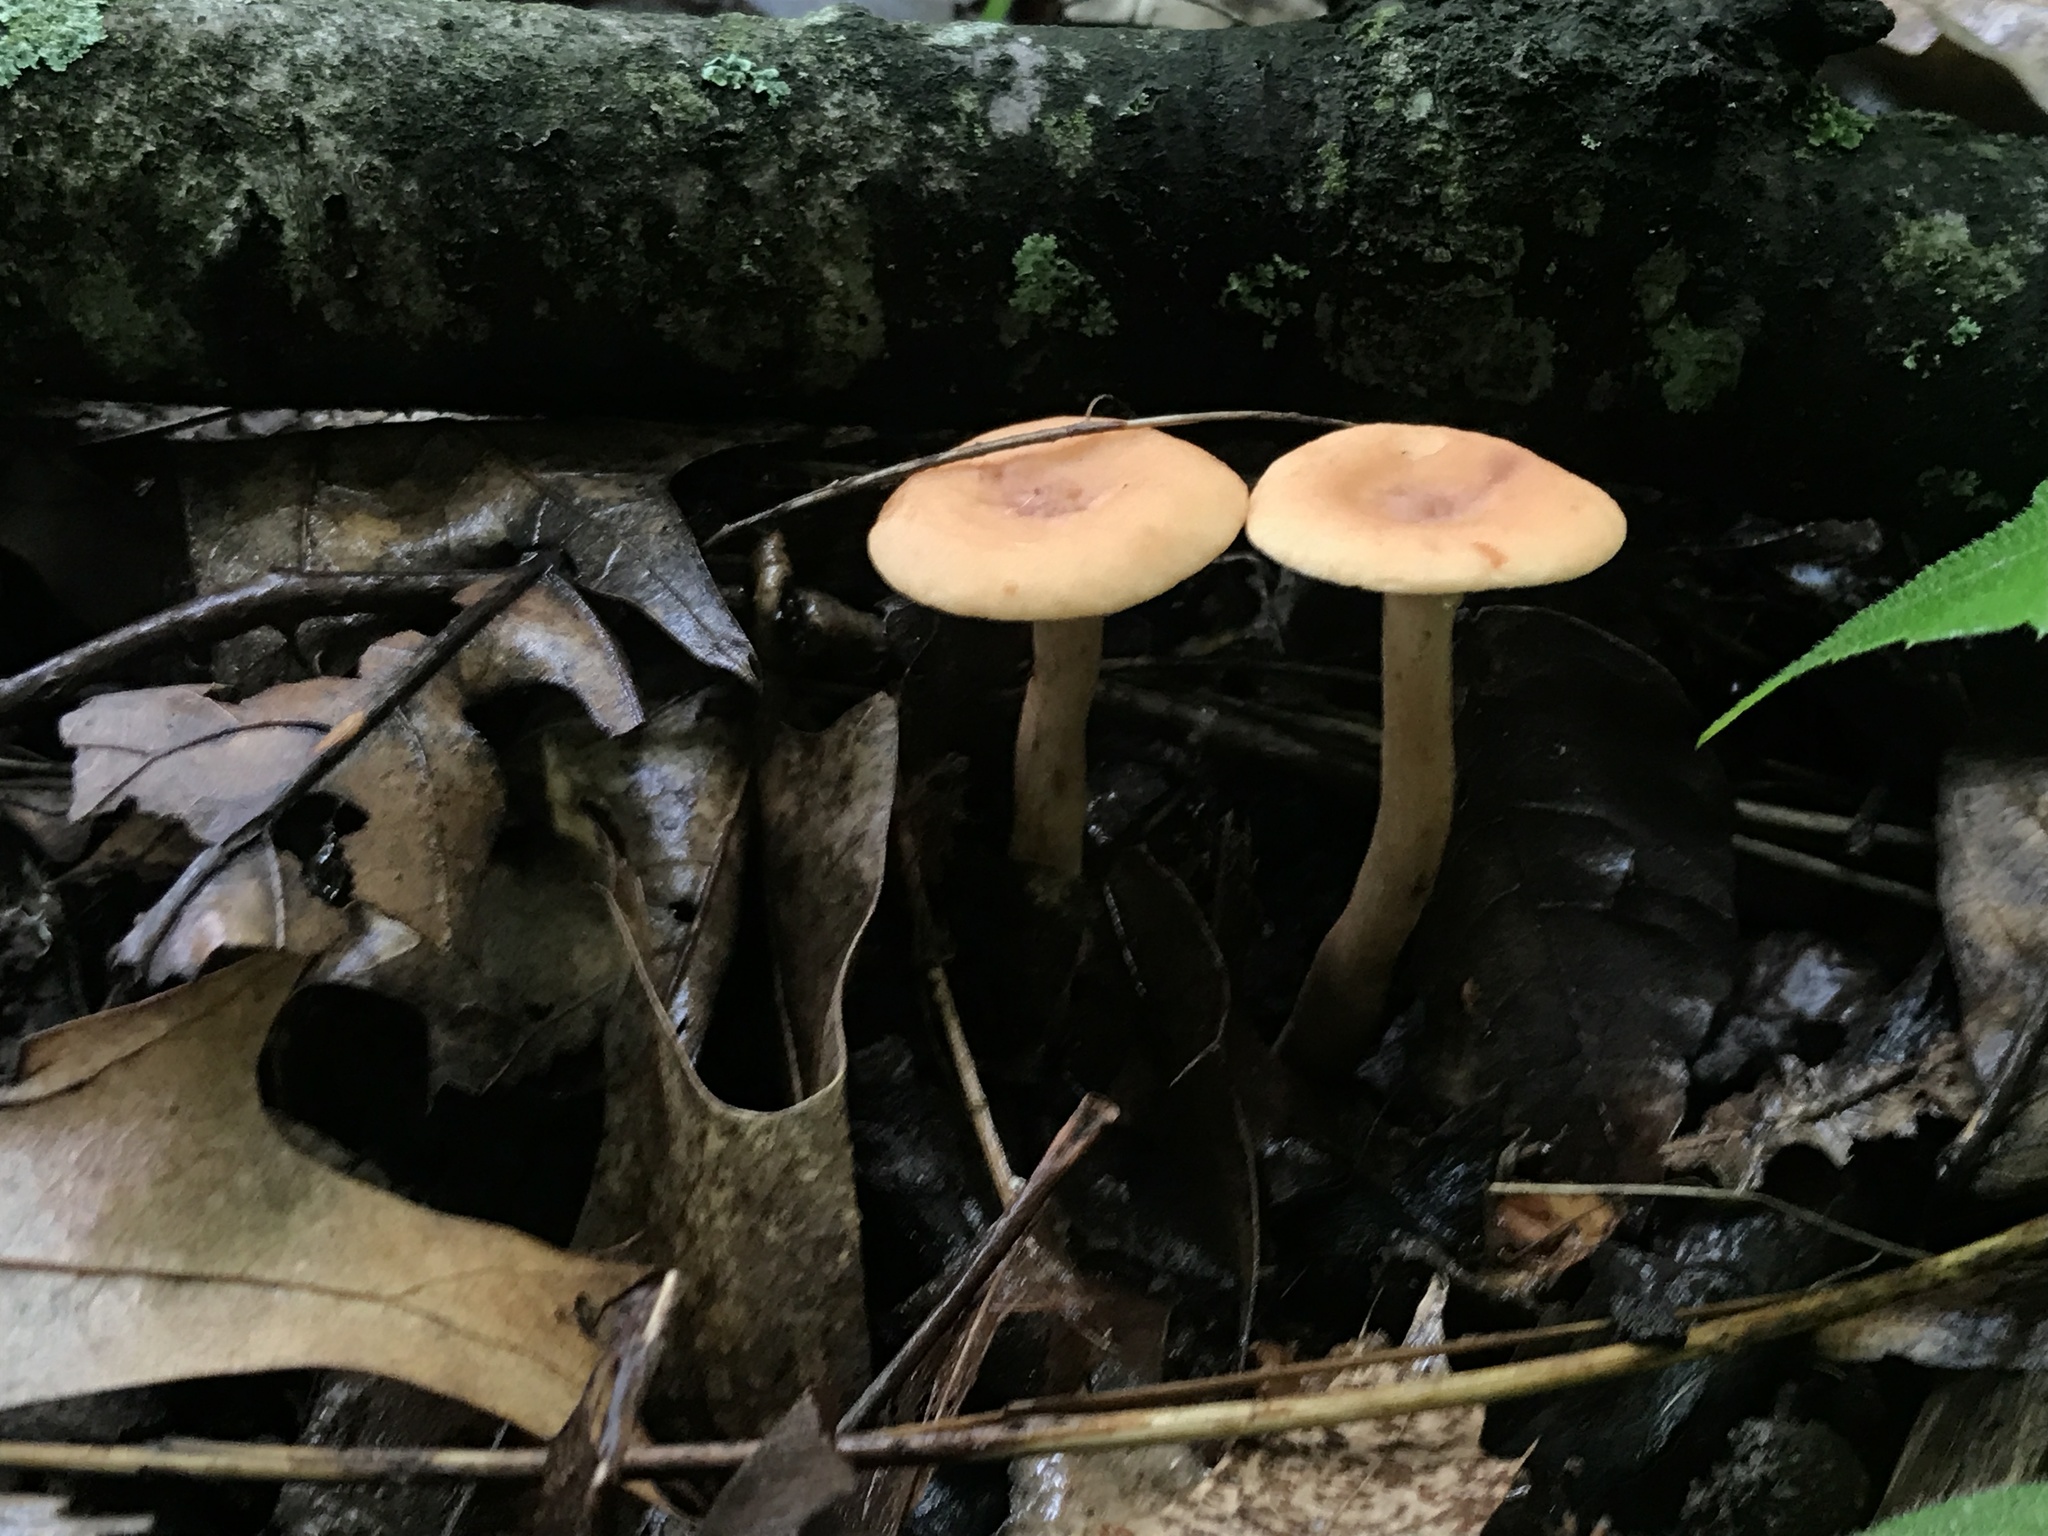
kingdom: Fungi
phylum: Basidiomycota
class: Agaricomycetes
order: Russulales
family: Russulaceae
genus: Lactarius
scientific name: Lactarius camphoratus
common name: Curry milkcap
